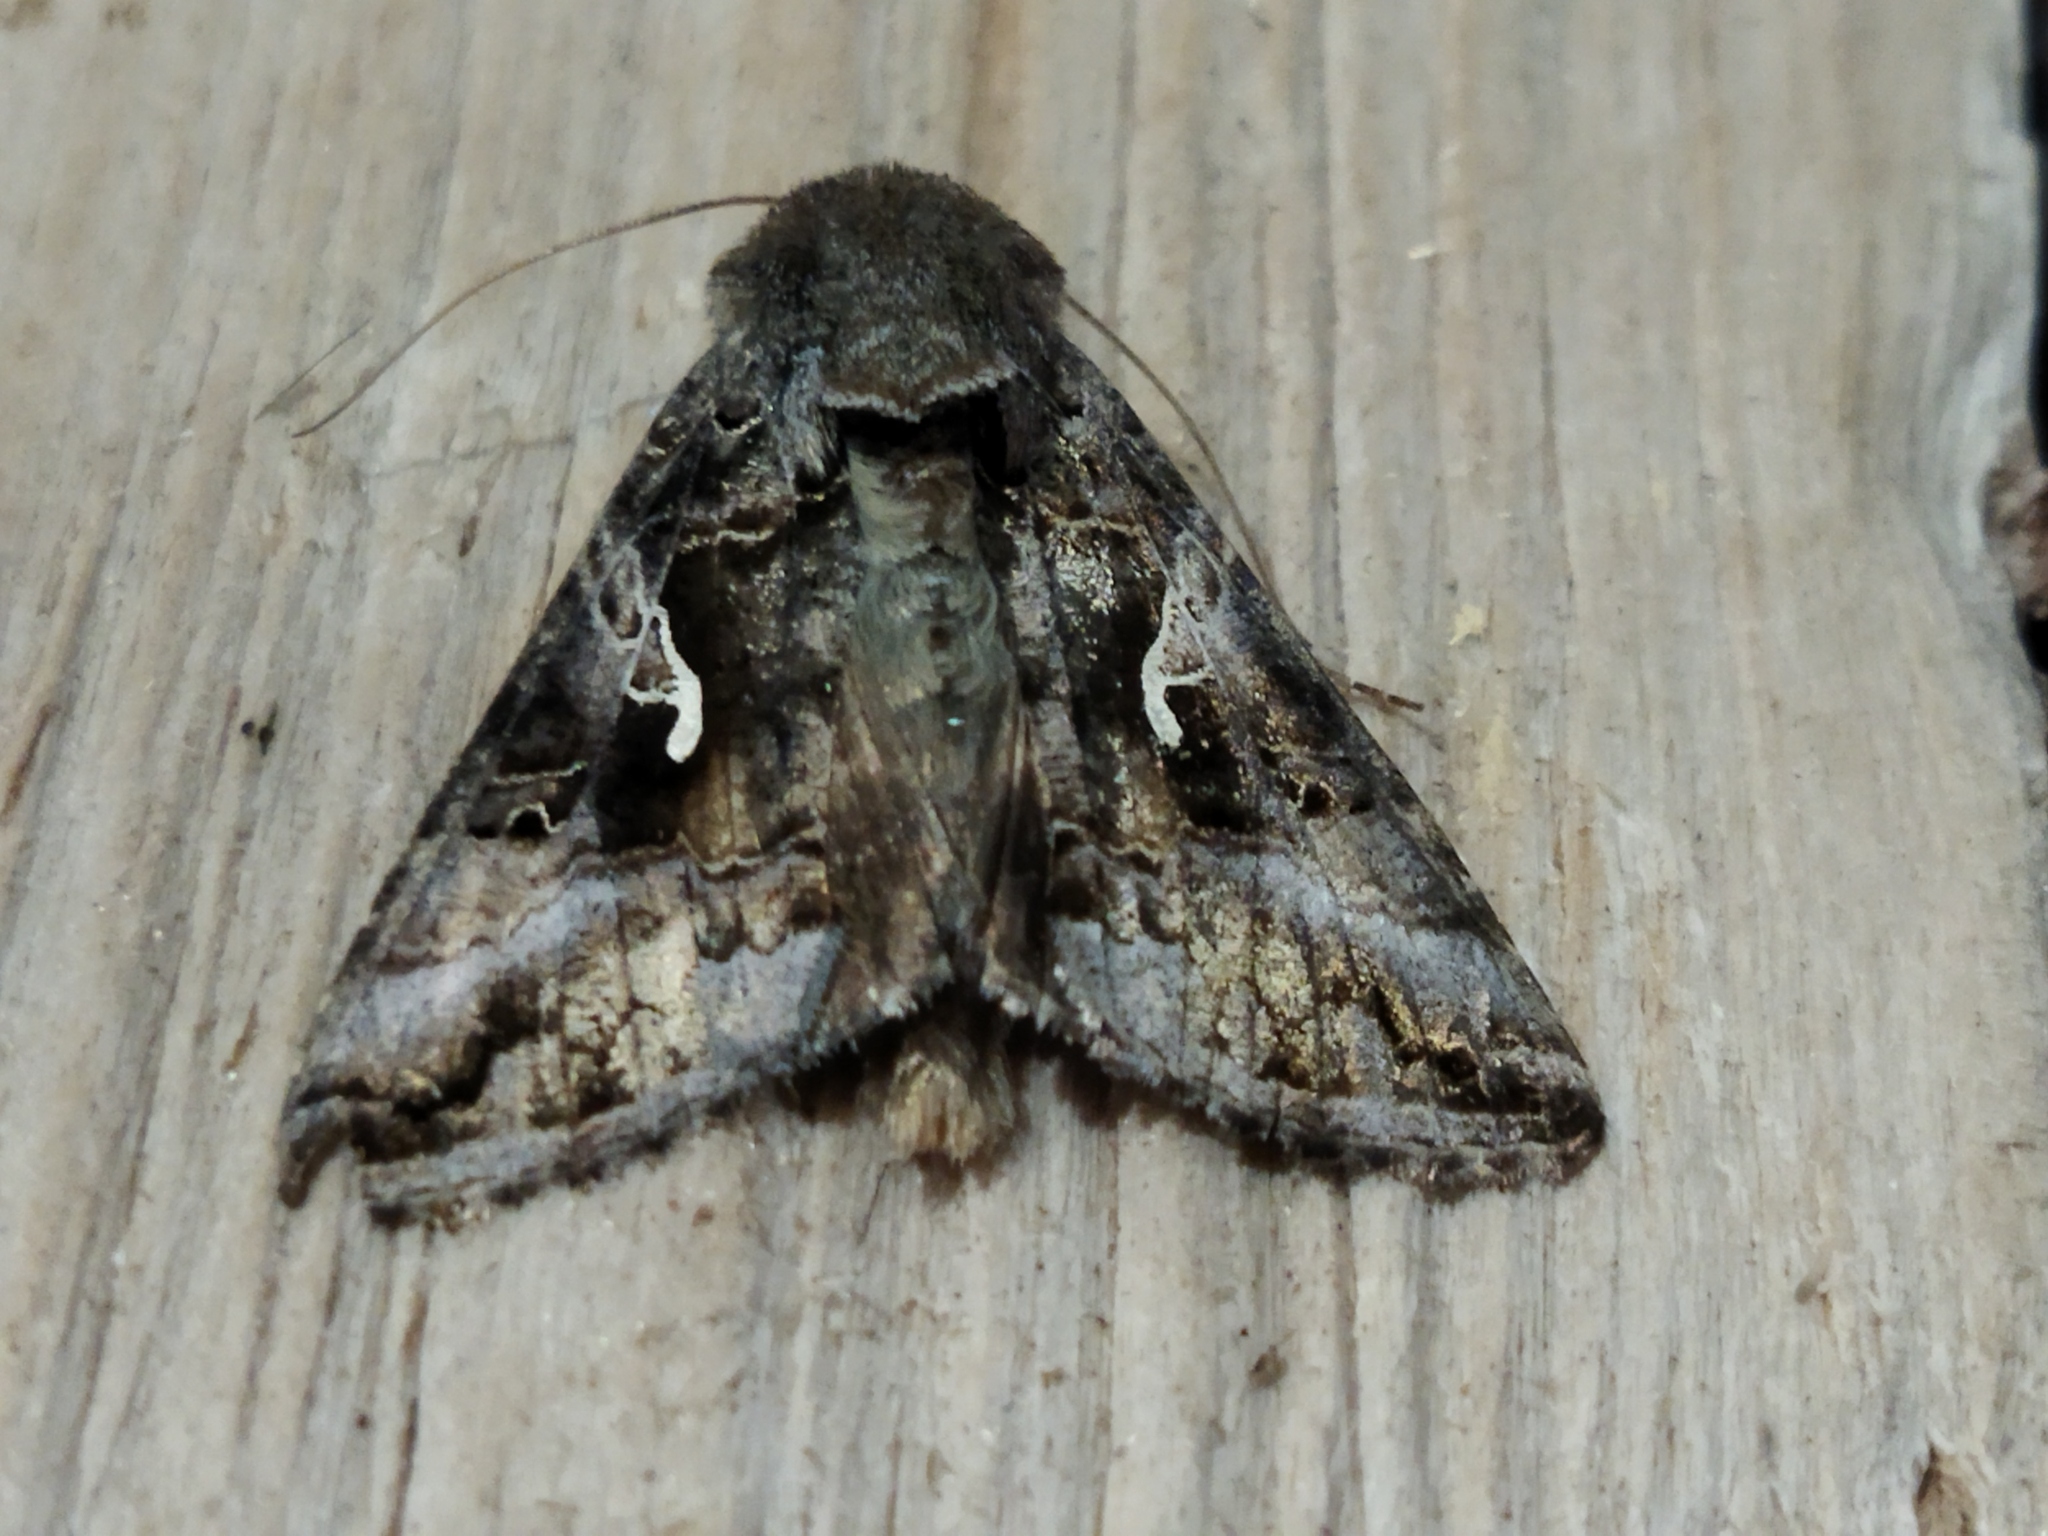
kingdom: Animalia
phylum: Arthropoda
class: Insecta
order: Lepidoptera
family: Noctuidae
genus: Autographa
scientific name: Autographa gamma
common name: Silver y
